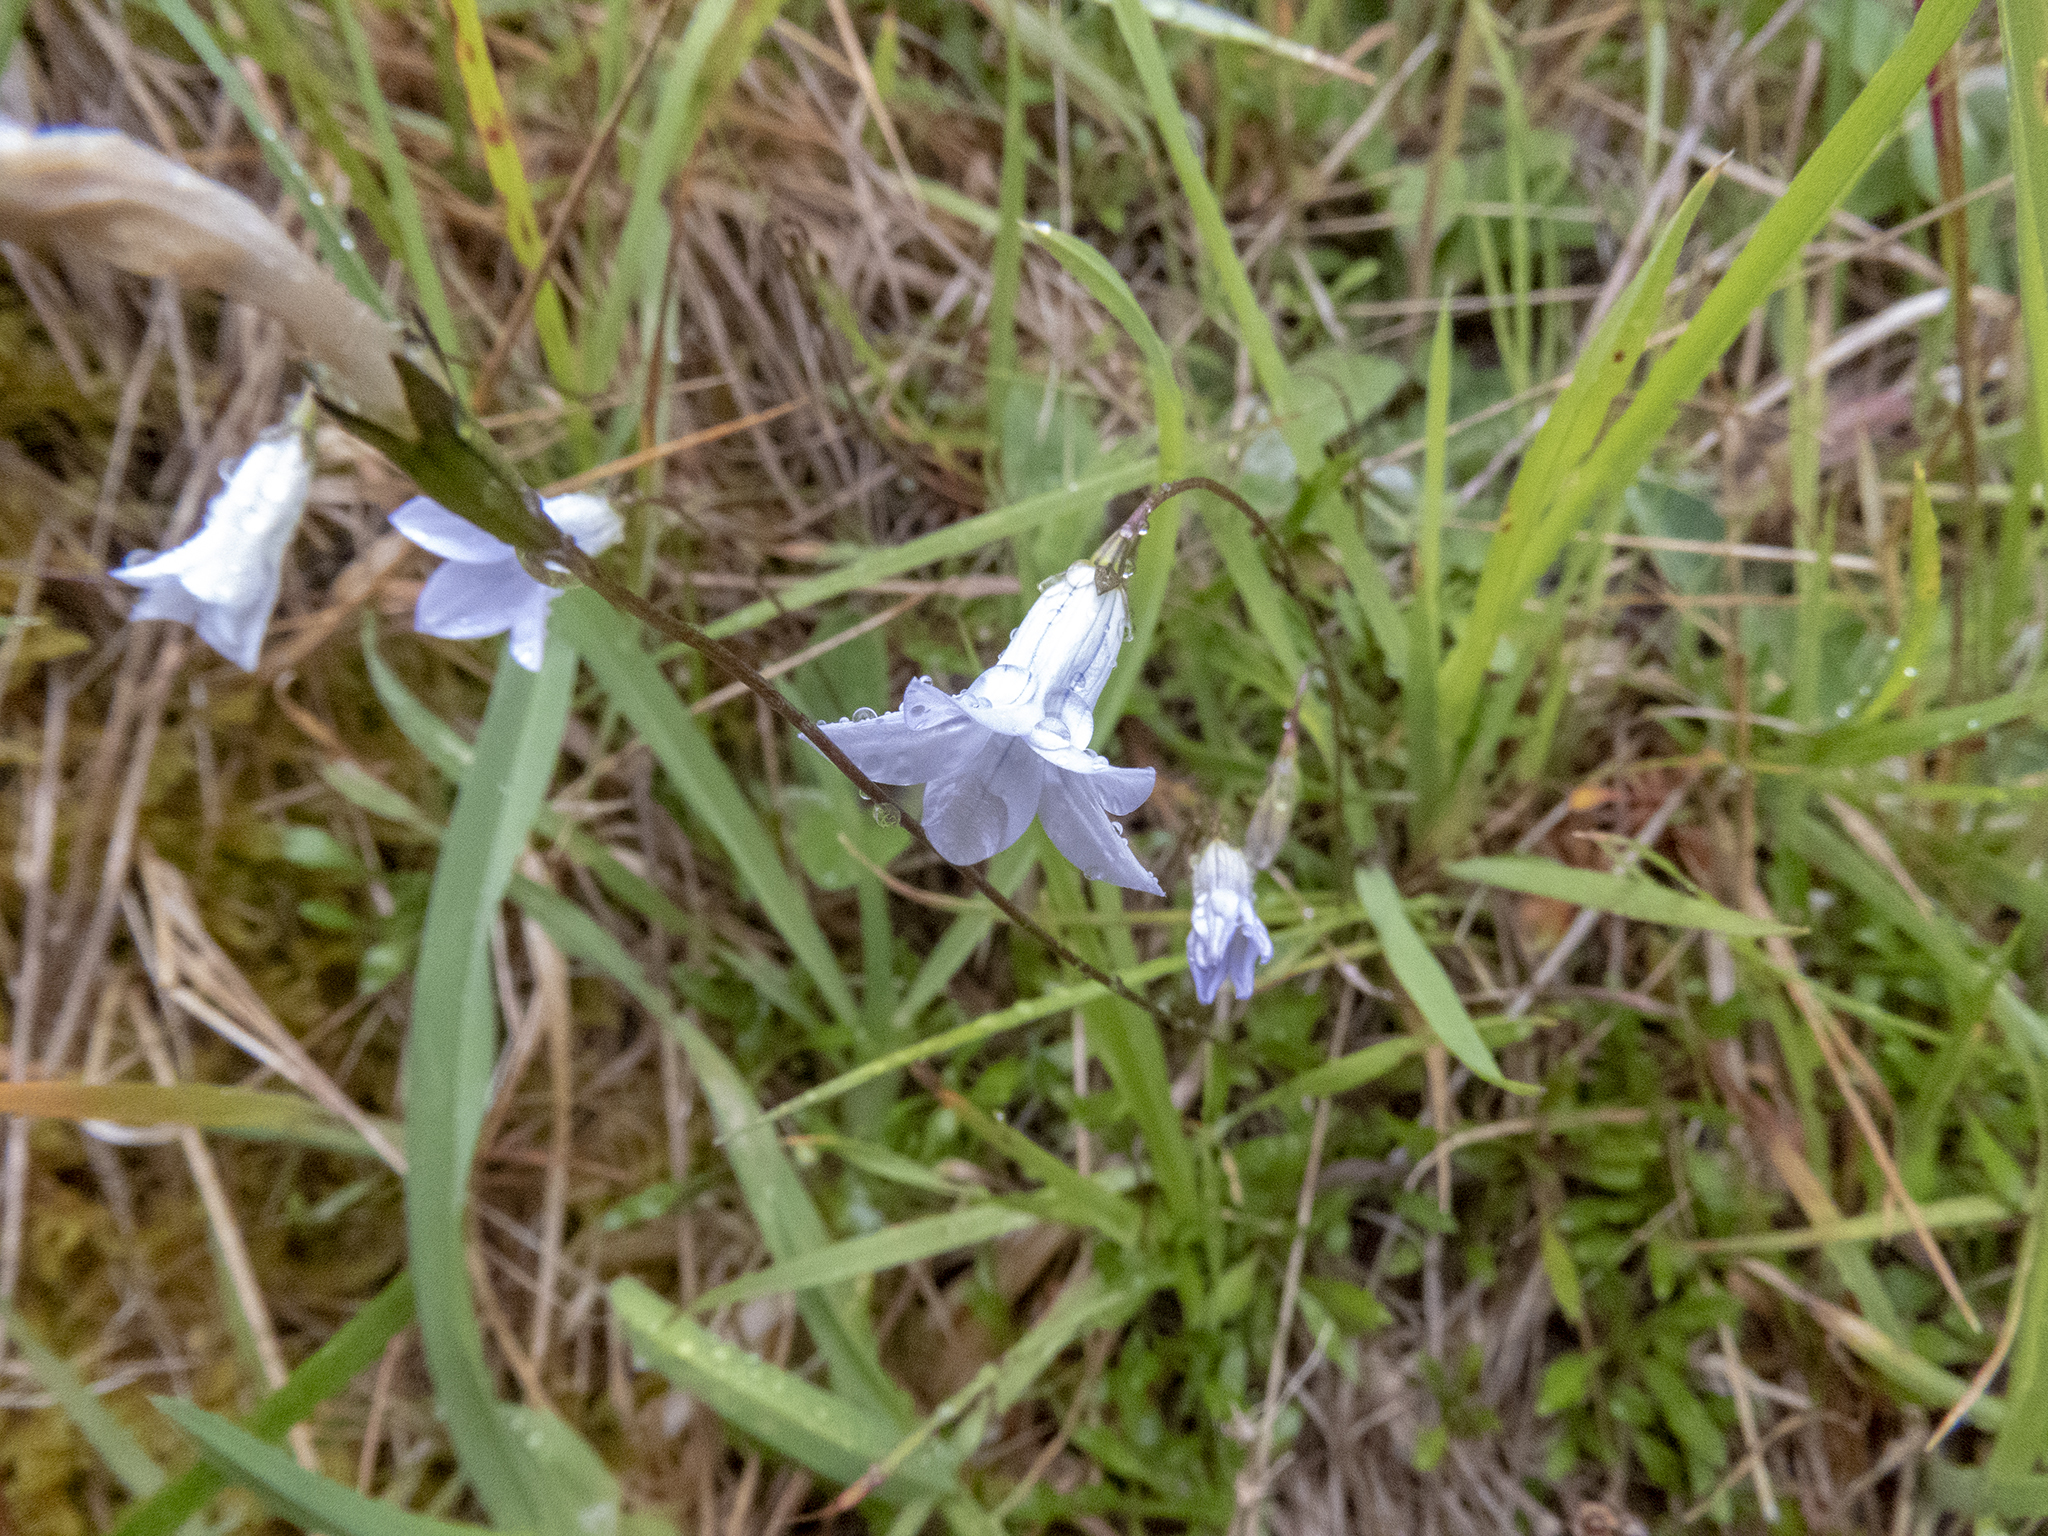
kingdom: Plantae
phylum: Tracheophyta
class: Magnoliopsida
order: Asterales
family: Campanulaceae
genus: Wahlenbergia
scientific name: Wahlenbergia albomarginata
